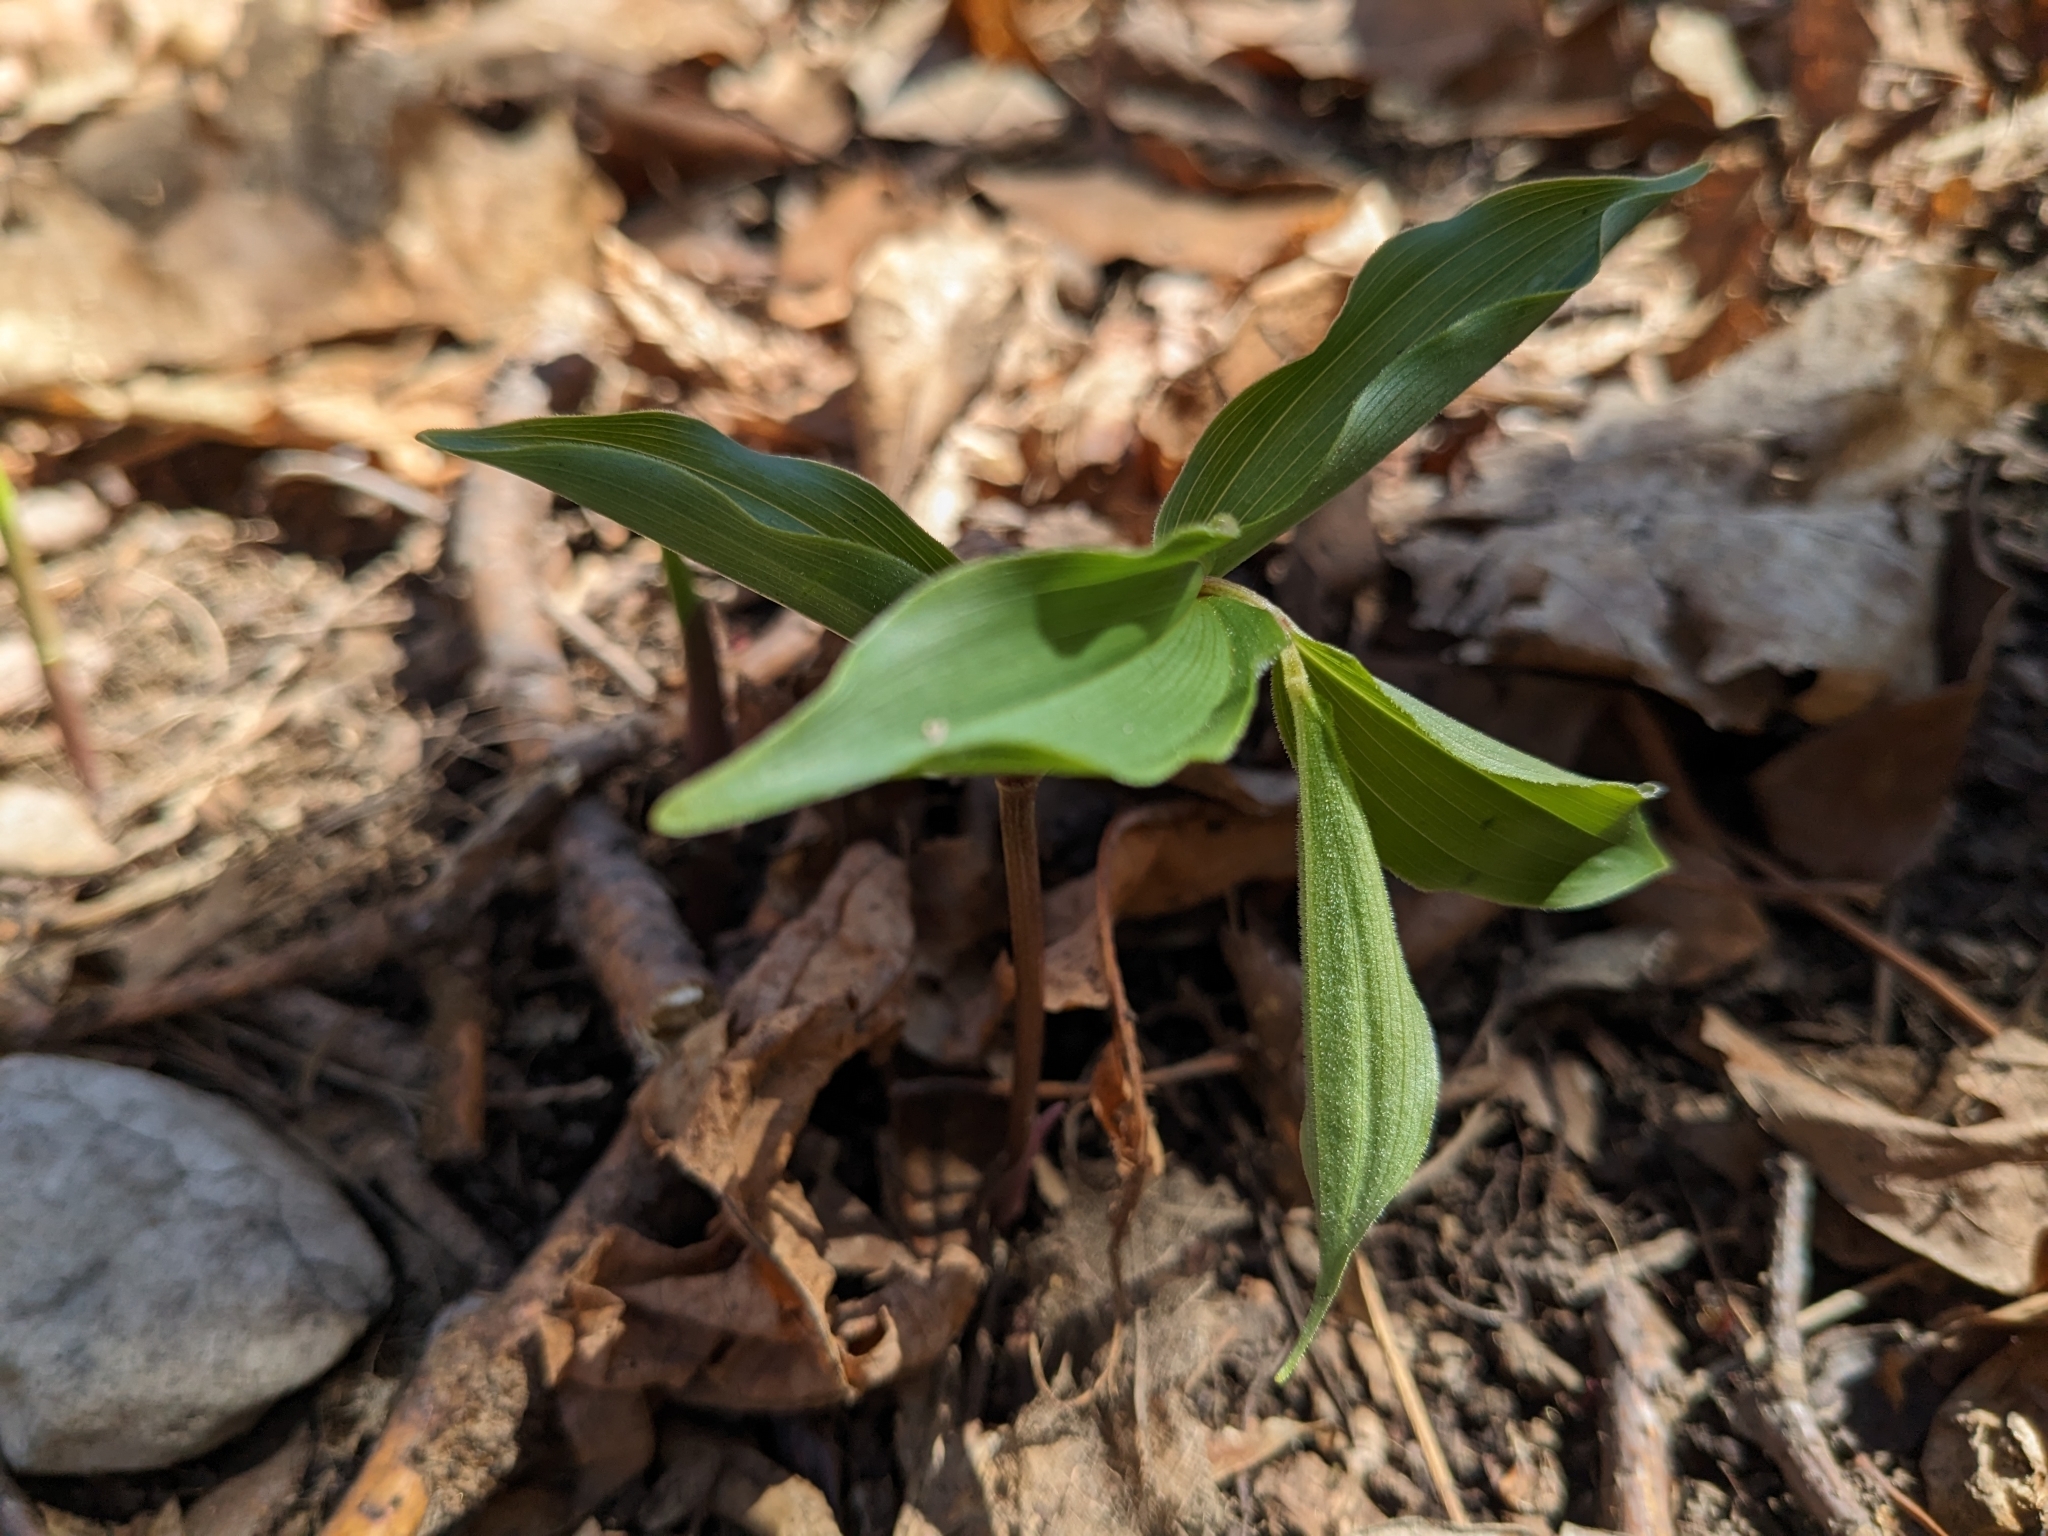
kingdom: Plantae
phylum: Tracheophyta
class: Liliopsida
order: Asparagales
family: Asparagaceae
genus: Maianthemum
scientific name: Maianthemum racemosum
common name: False spikenard
